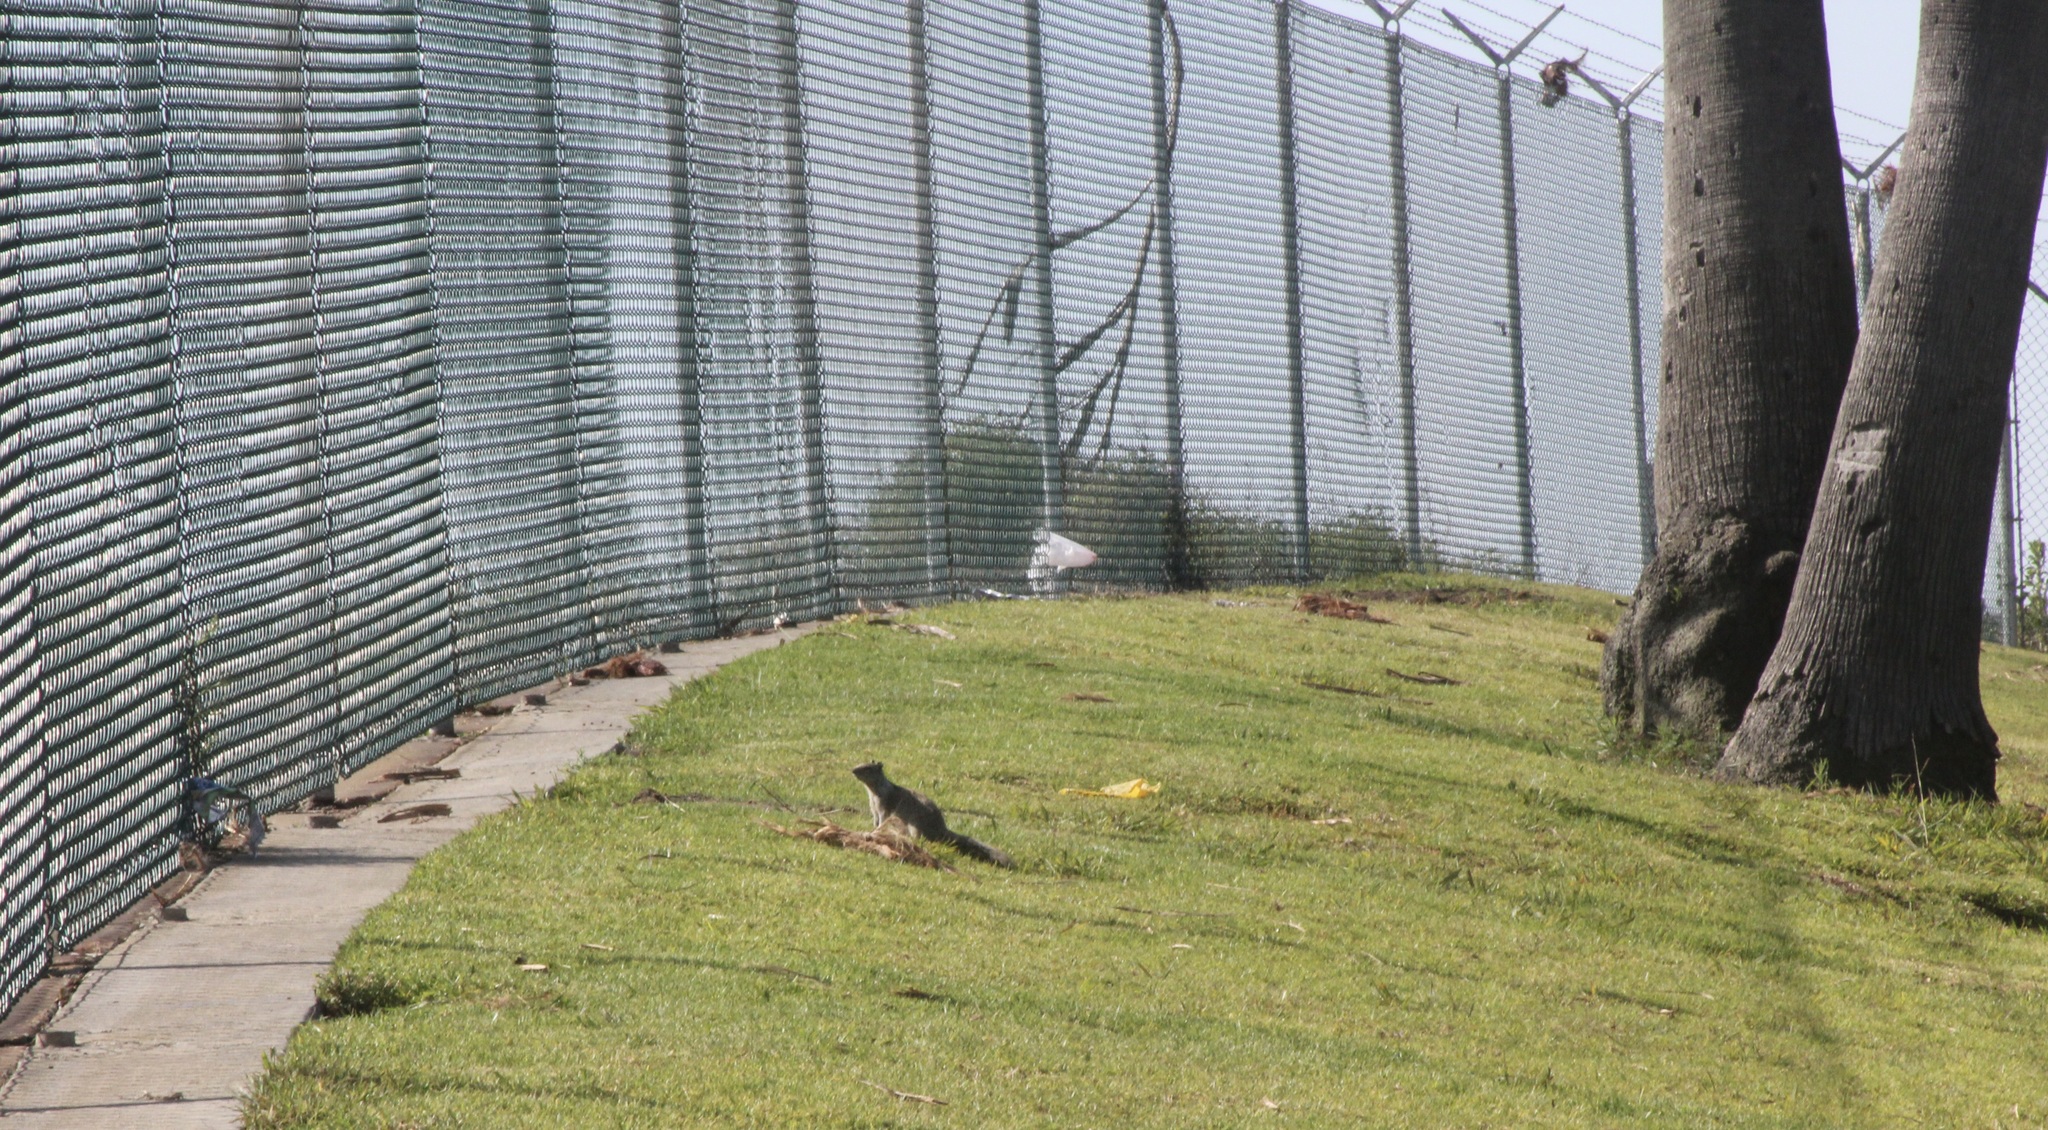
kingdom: Animalia
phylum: Chordata
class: Mammalia
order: Rodentia
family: Sciuridae
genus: Otospermophilus
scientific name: Otospermophilus beecheyi
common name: California ground squirrel
